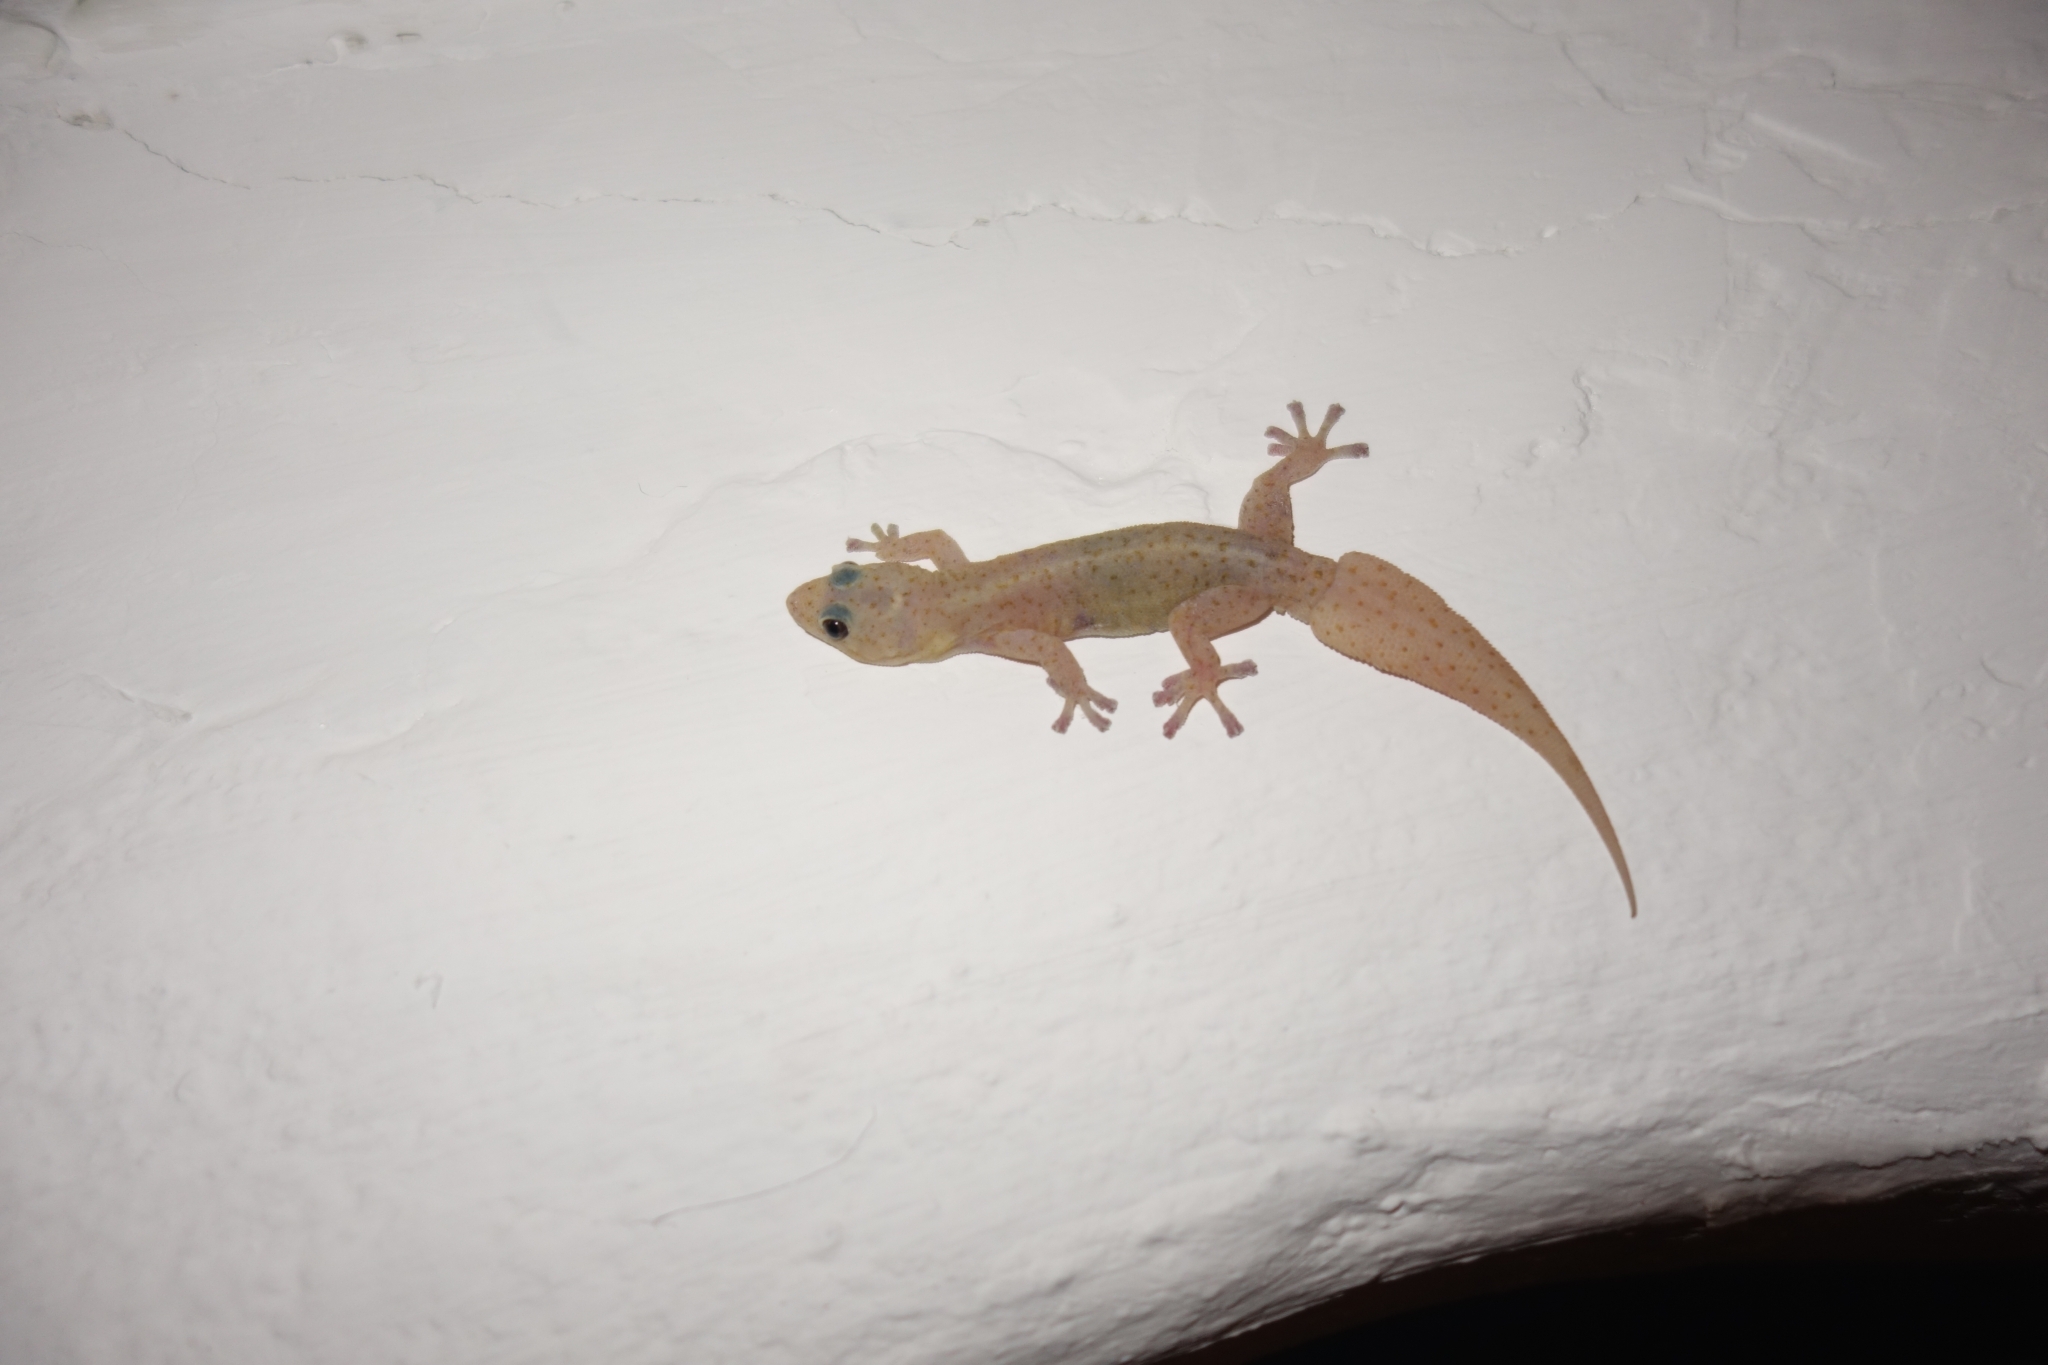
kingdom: Animalia
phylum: Chordata
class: Squamata
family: Gekkonidae
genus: Afroedura
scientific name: Afroedura karroica
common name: Inland rock gecko
